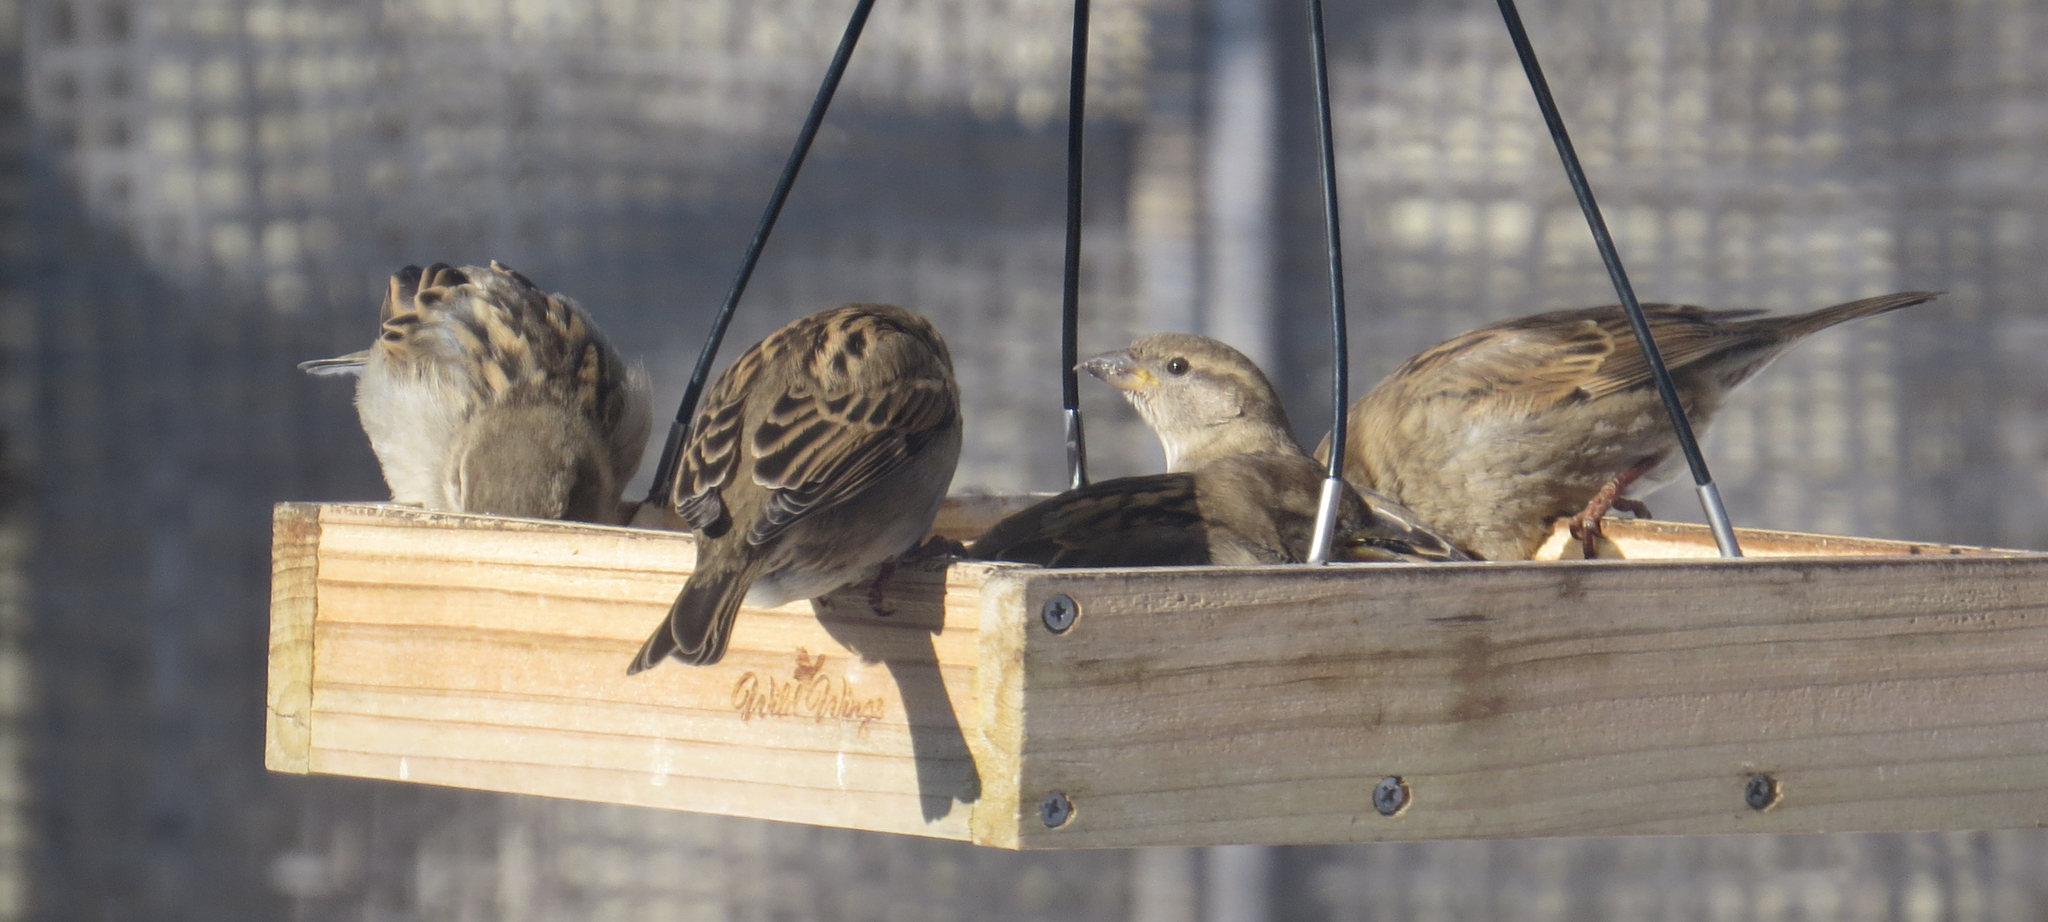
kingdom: Animalia
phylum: Chordata
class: Aves
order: Passeriformes
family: Passeridae
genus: Passer
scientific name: Passer domesticus
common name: House sparrow
